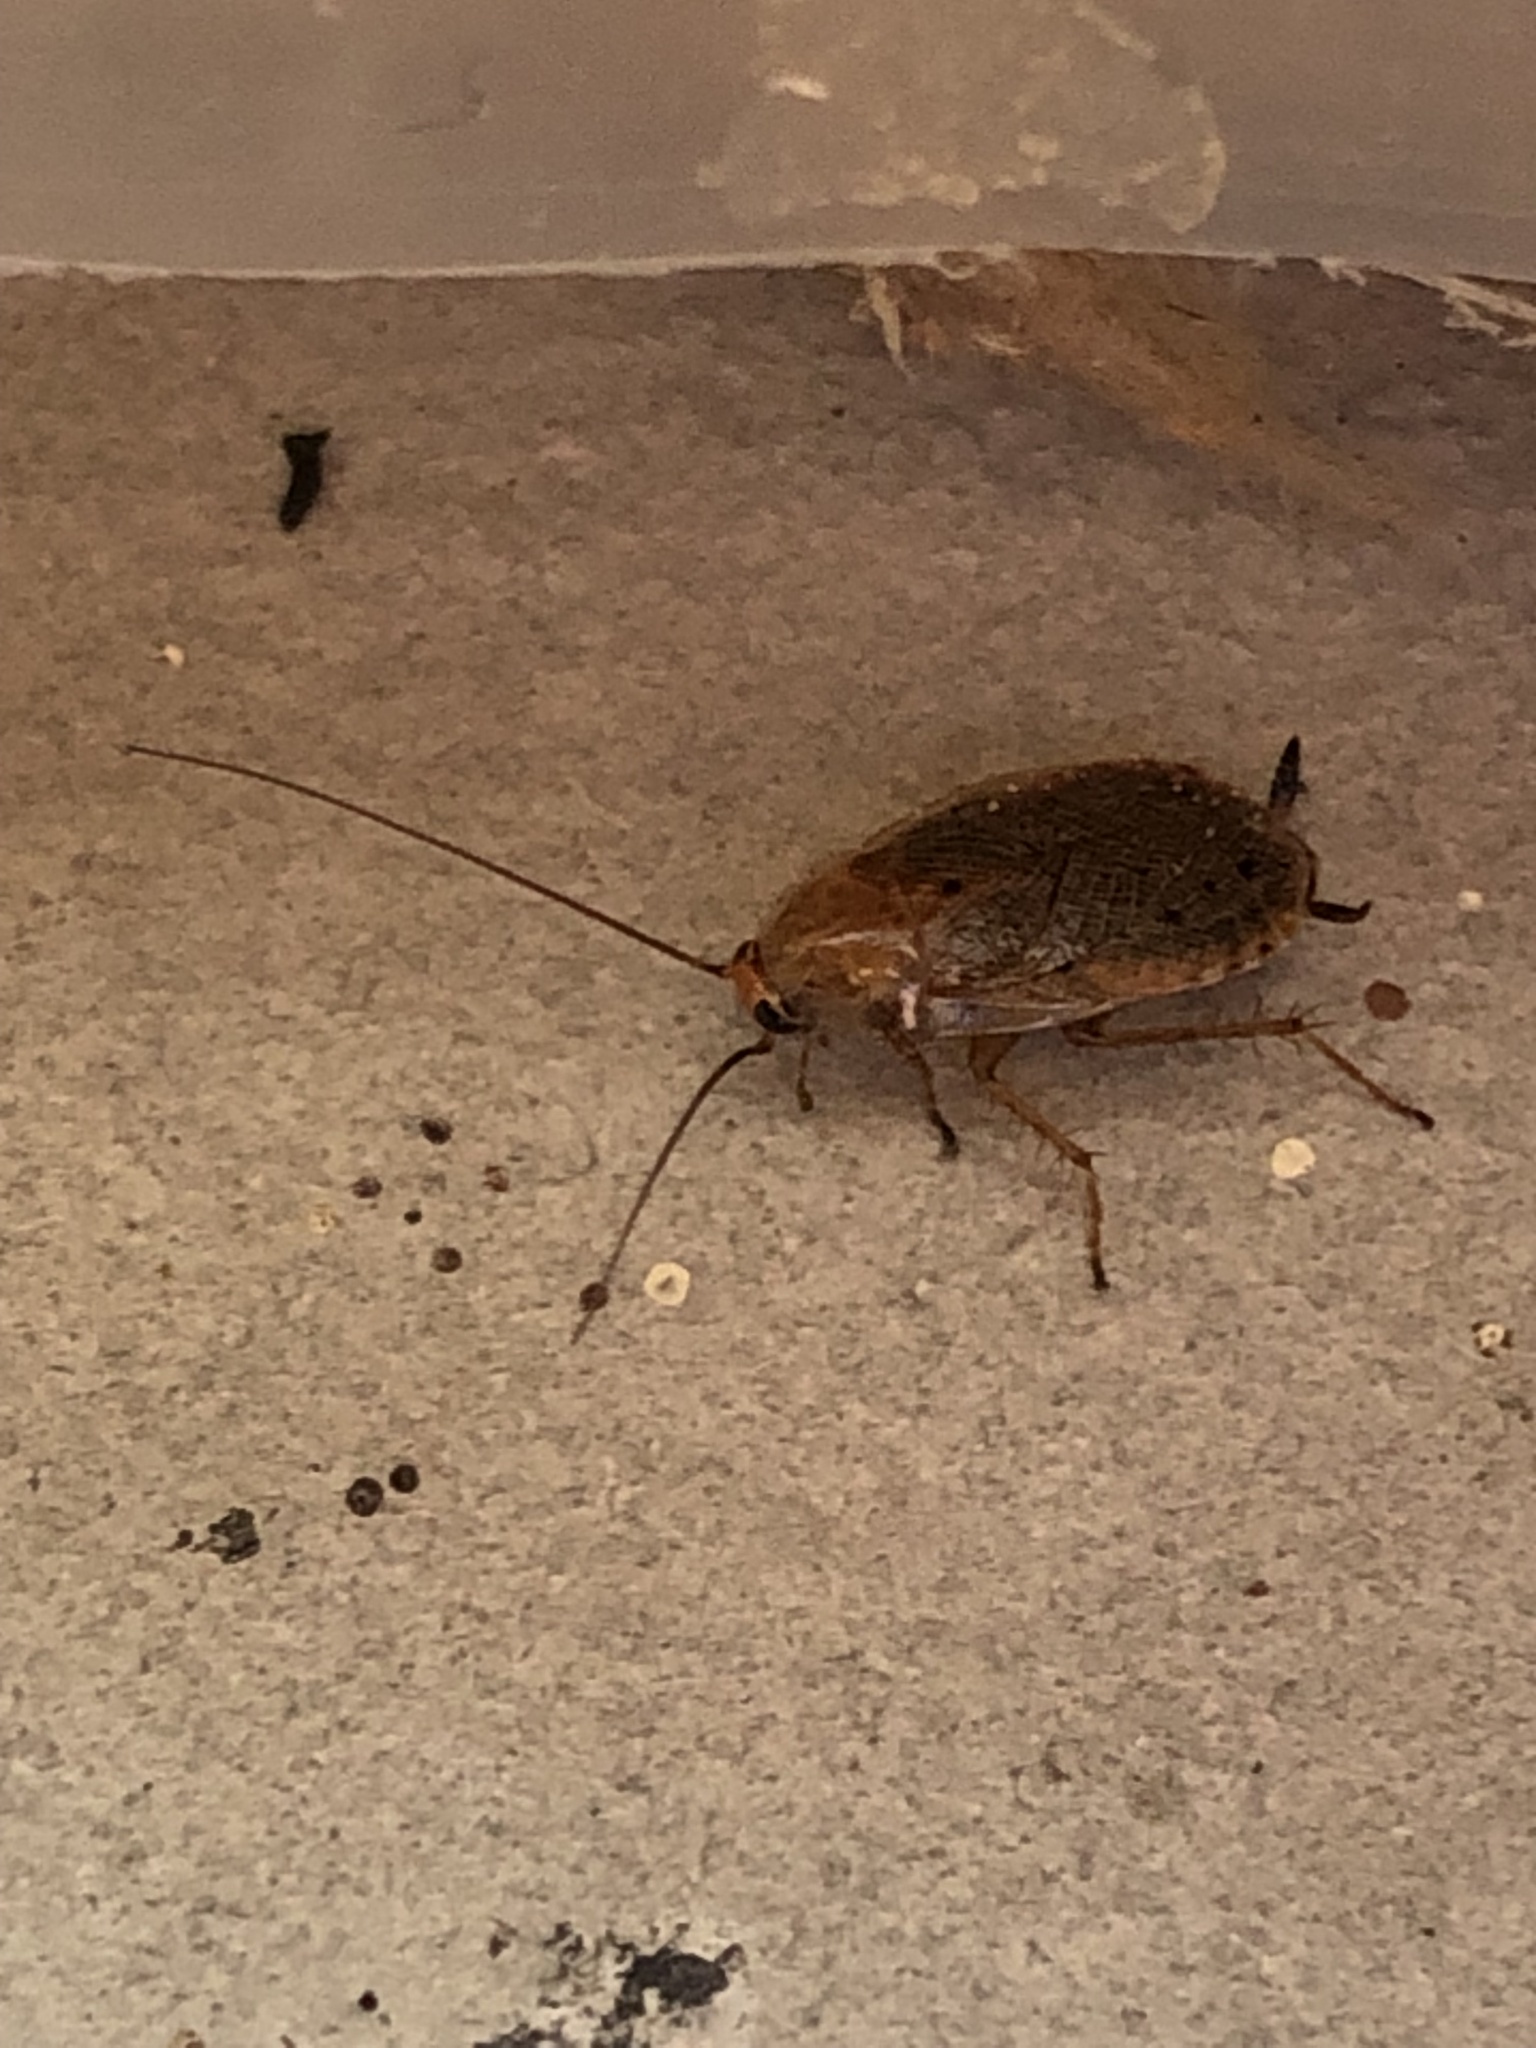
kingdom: Animalia
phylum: Arthropoda
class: Insecta
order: Blattodea
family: Ectobiidae
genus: Ectobius
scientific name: Ectobius lapponicus
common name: Dusky cockroach
